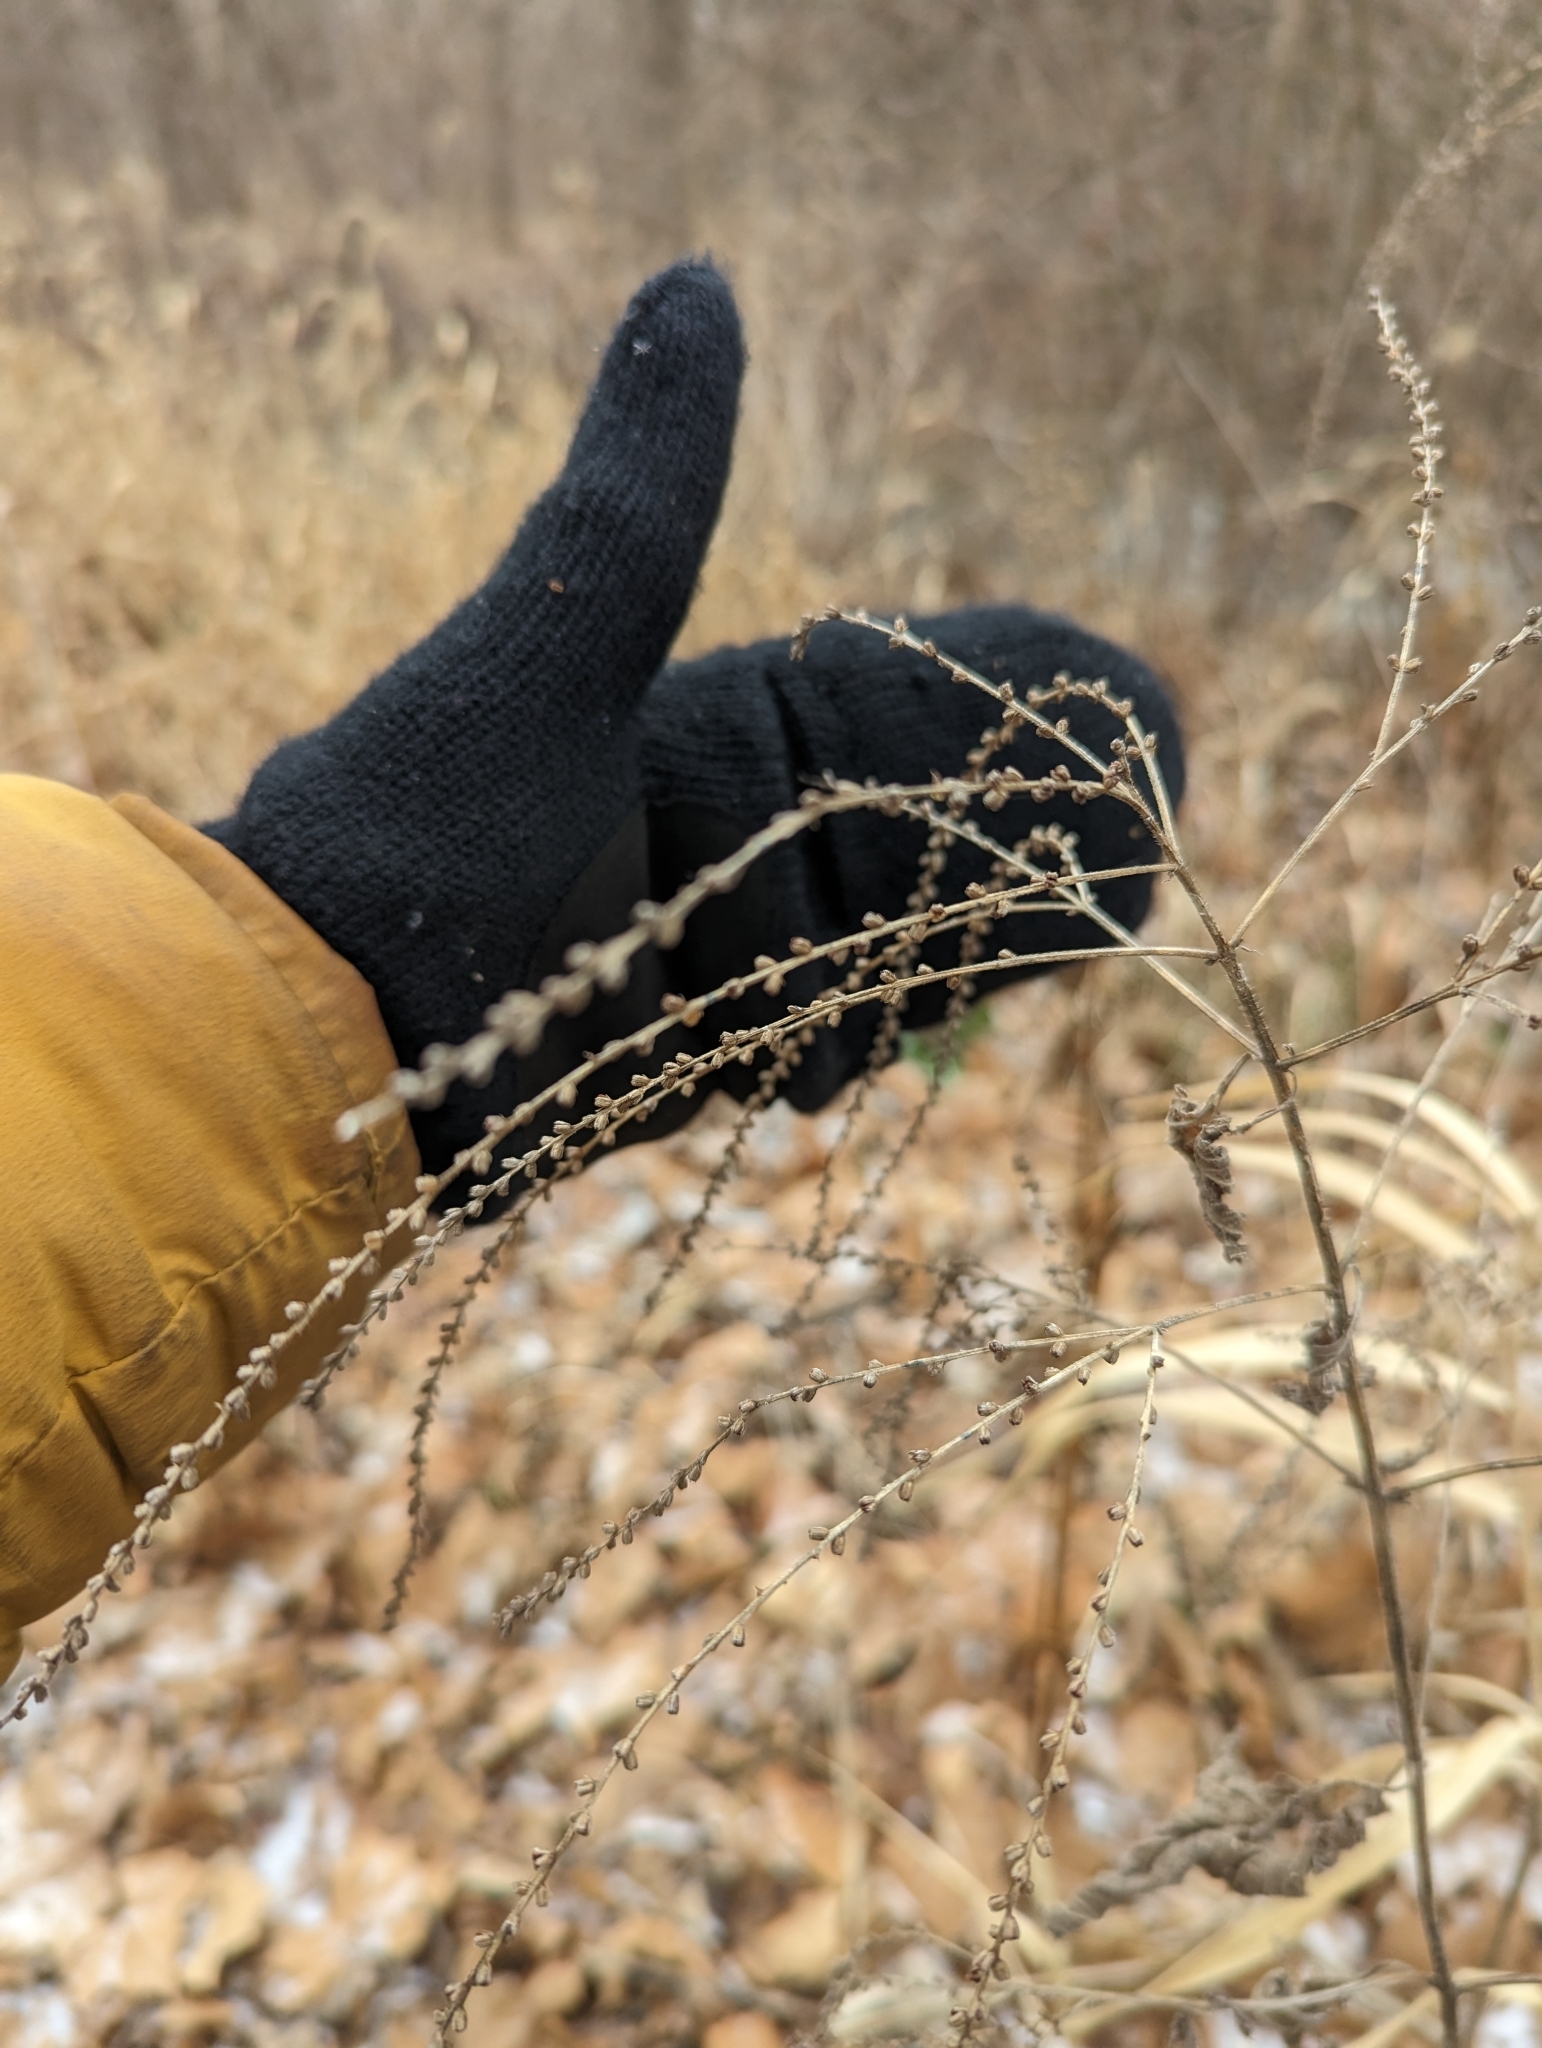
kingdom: Plantae
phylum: Tracheophyta
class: Magnoliopsida
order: Lamiales
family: Verbenaceae
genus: Verbena
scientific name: Verbena urticifolia
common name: Nettle-leaved vervain
